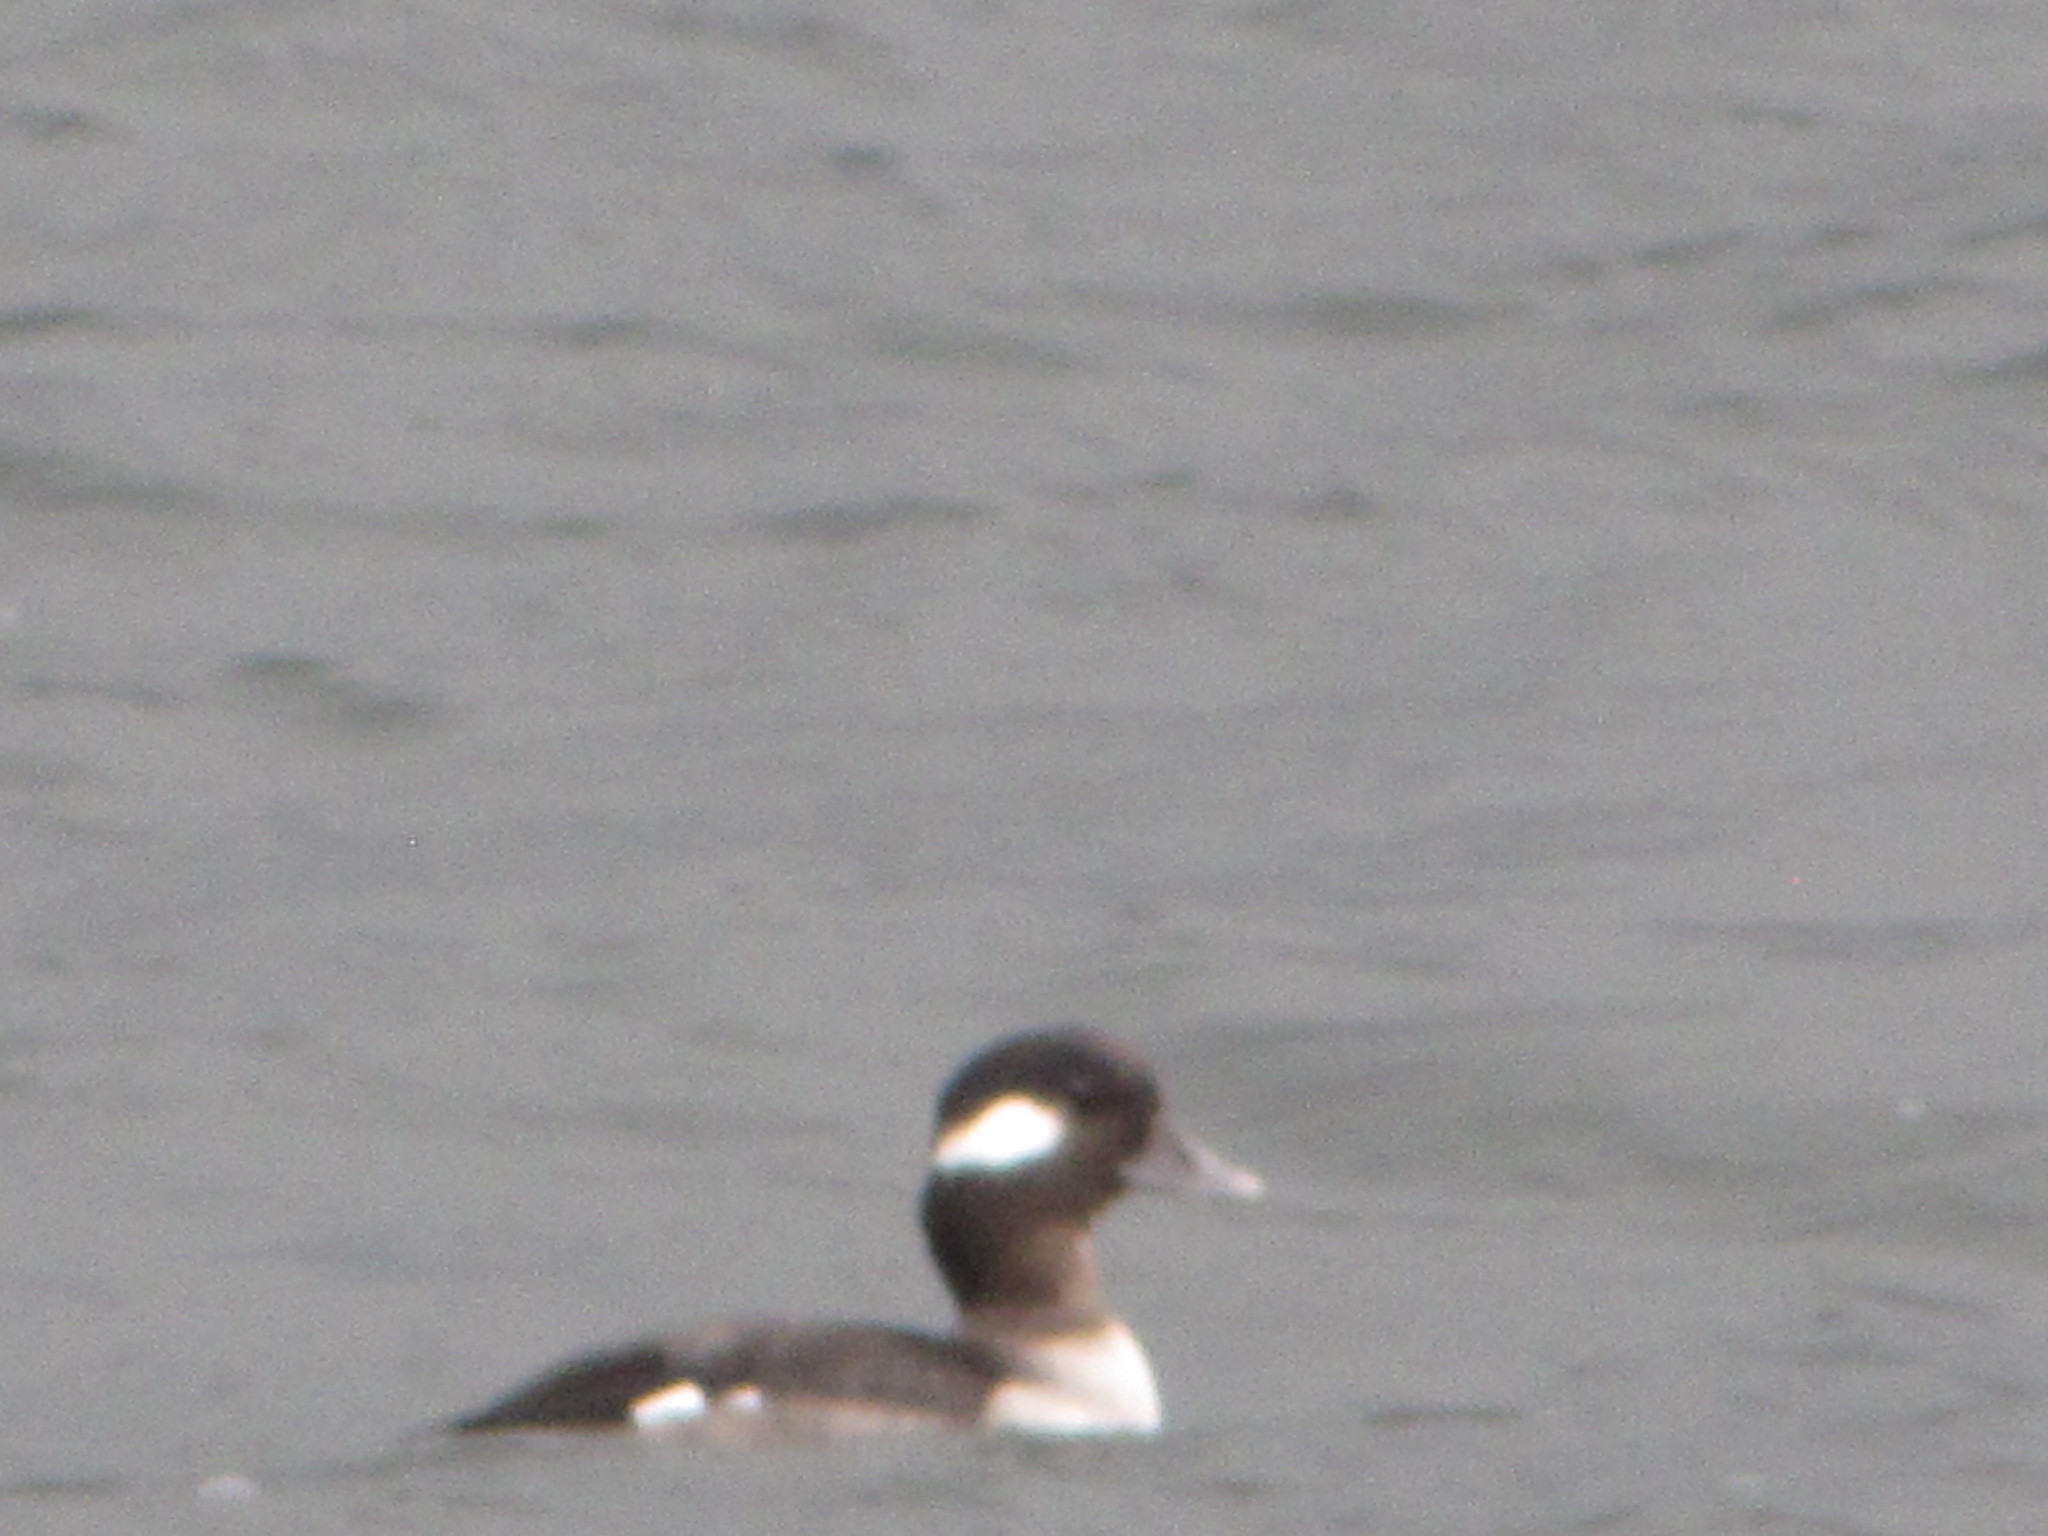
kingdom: Animalia
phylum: Chordata
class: Aves
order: Anseriformes
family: Anatidae
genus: Bucephala
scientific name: Bucephala albeola
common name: Bufflehead
